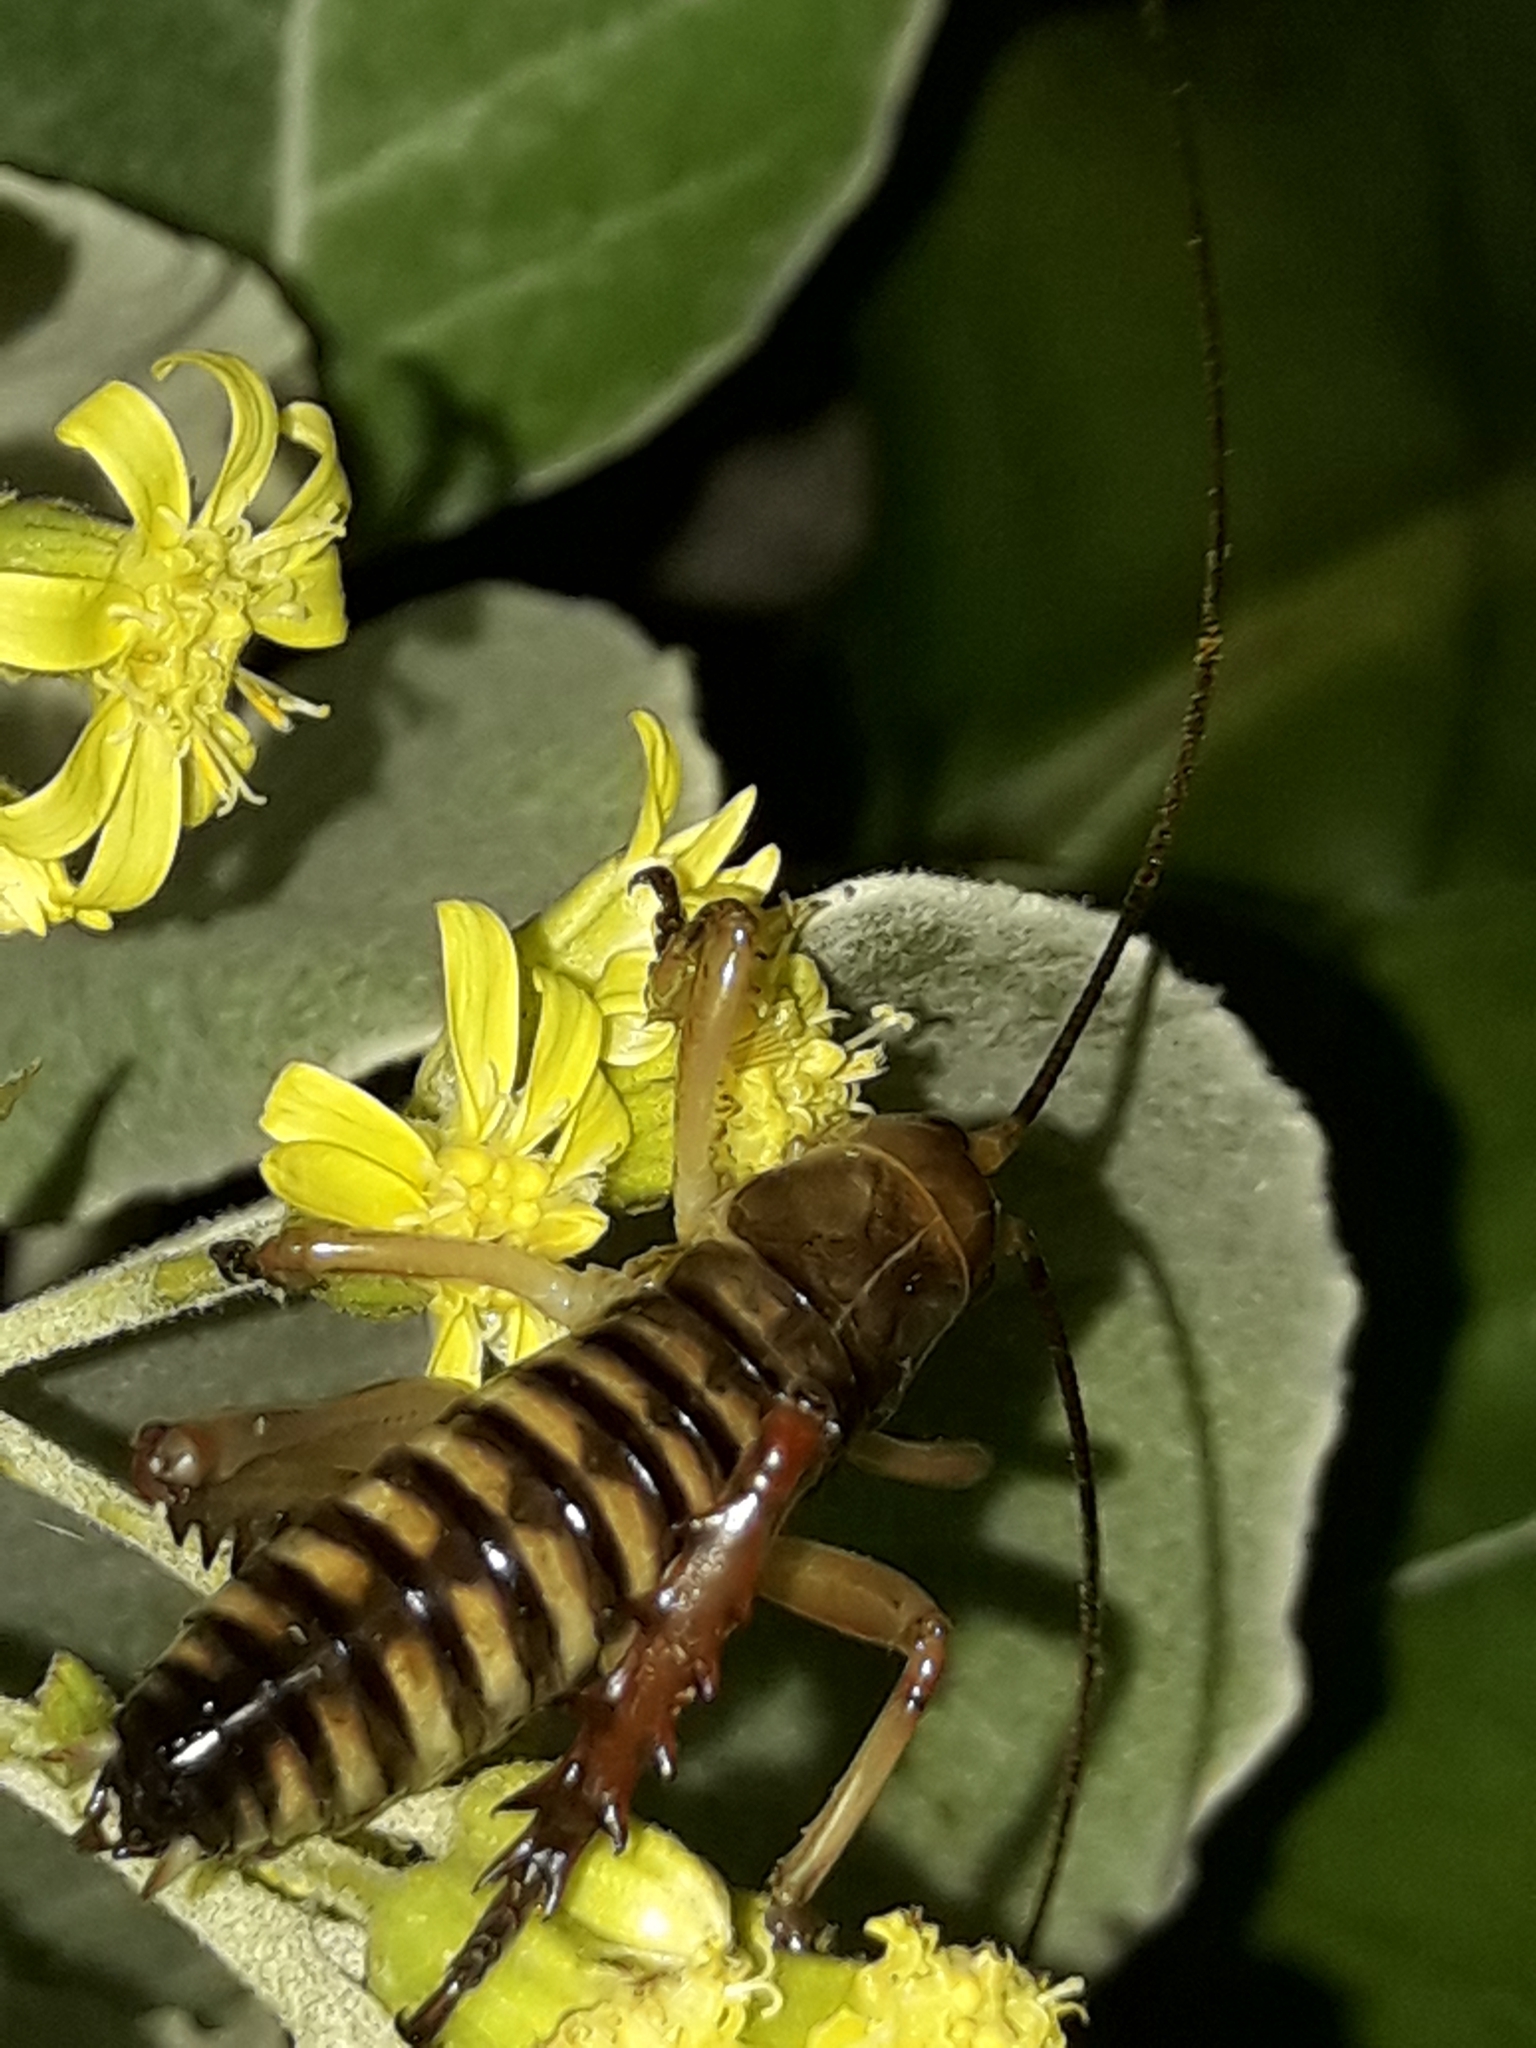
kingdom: Animalia
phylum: Arthropoda
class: Insecta
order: Orthoptera
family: Anostostomatidae
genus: Hemideina
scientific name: Hemideina crassidens
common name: Wellington tree weta
